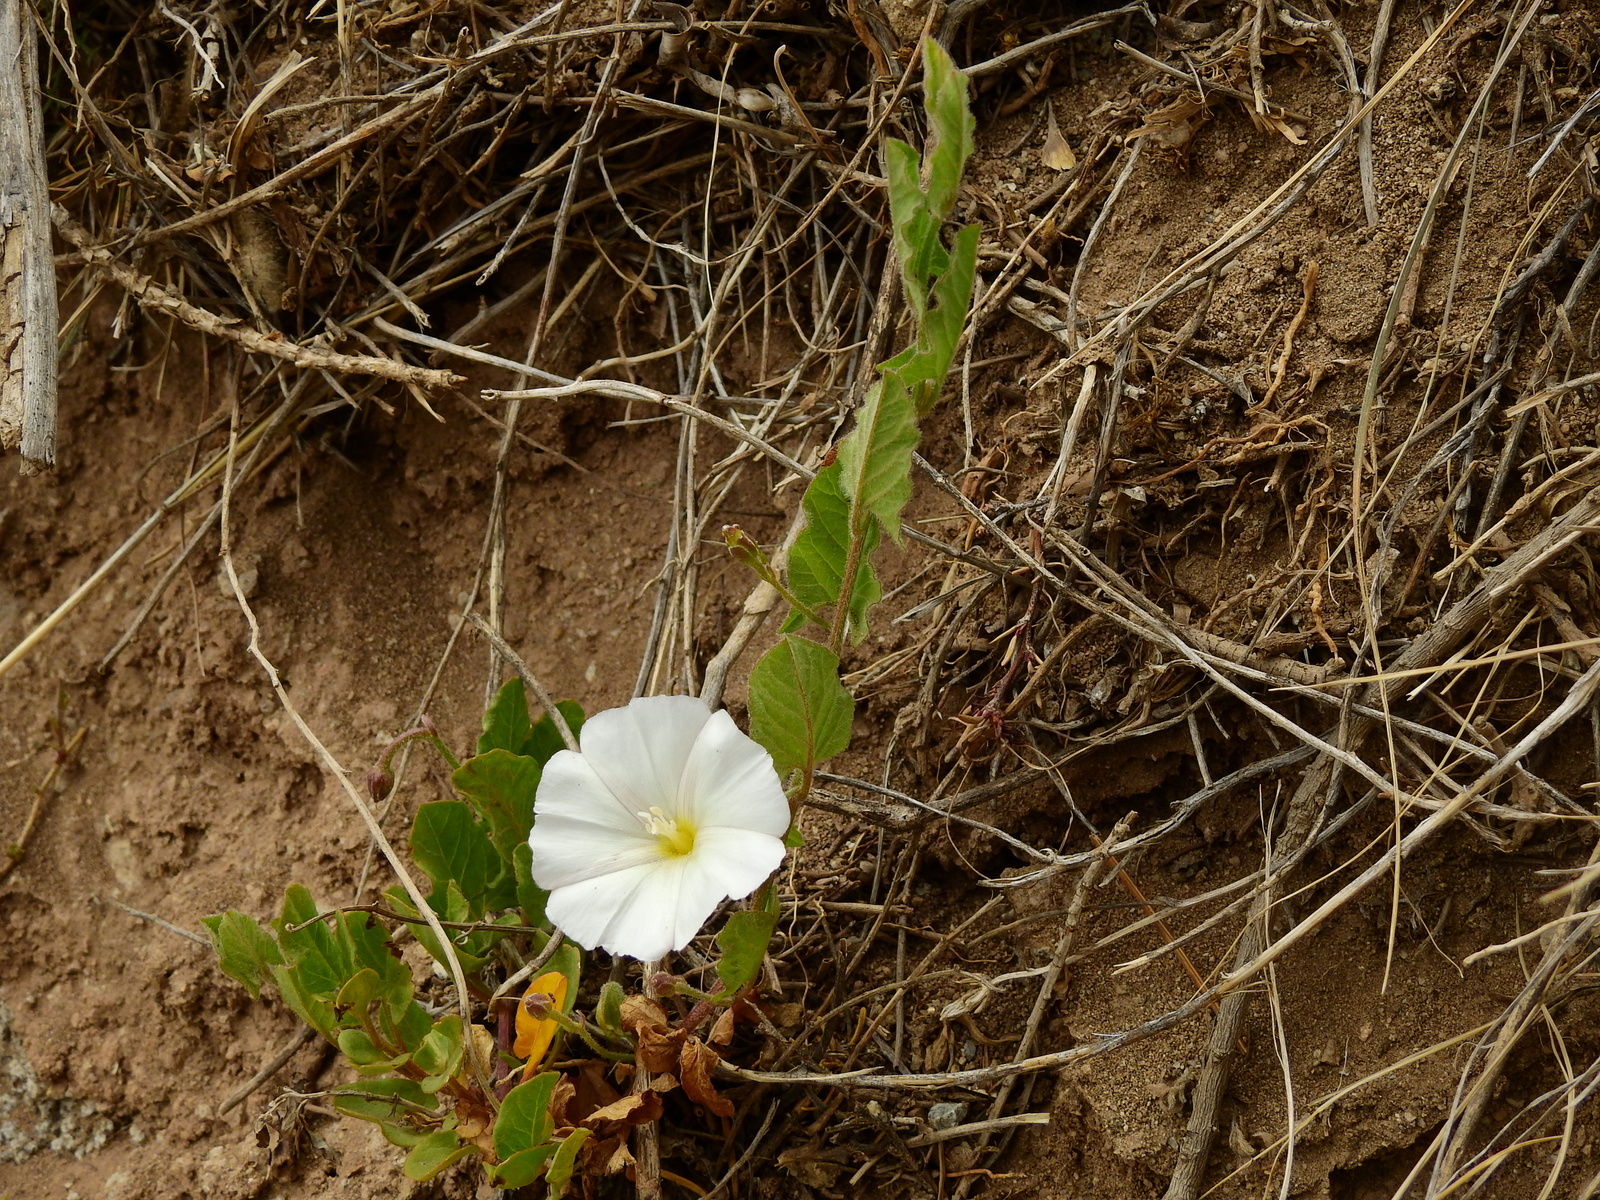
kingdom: Plantae
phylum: Tracheophyta
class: Magnoliopsida
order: Solanales
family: Convolvulaceae
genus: Convolvulus
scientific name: Convolvulus arvensis
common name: Field bindweed
